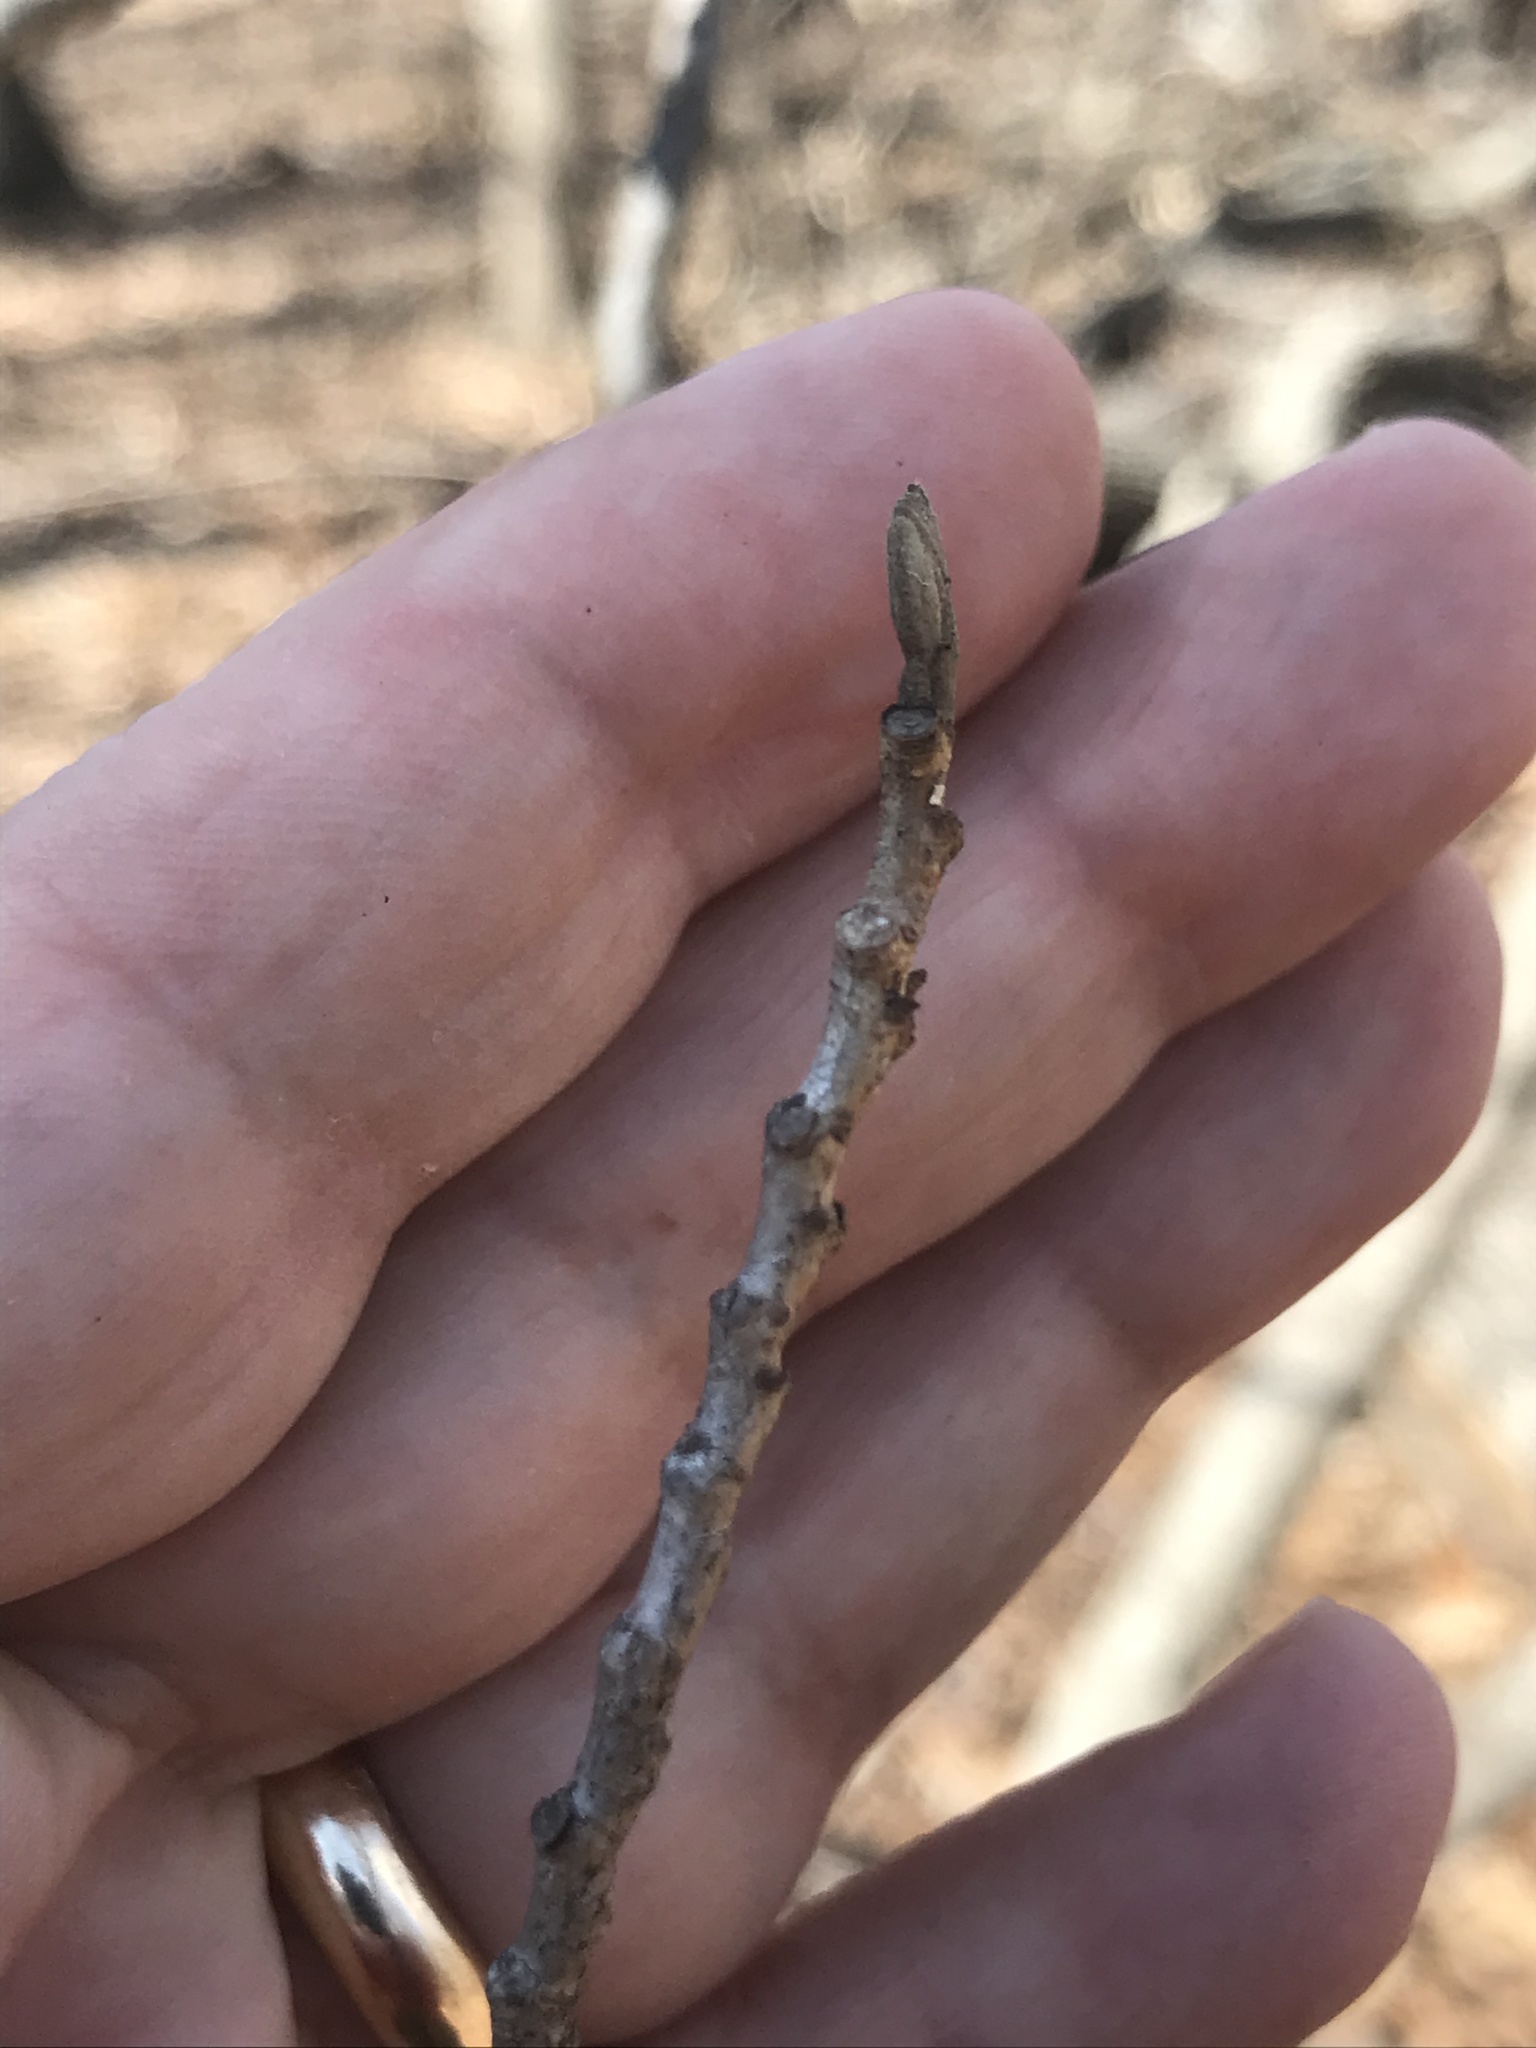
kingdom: Plantae
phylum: Tracheophyta
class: Magnoliopsida
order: Saxifragales
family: Hamamelidaceae
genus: Hamamelis
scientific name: Hamamelis virginiana
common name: Witch-hazel
